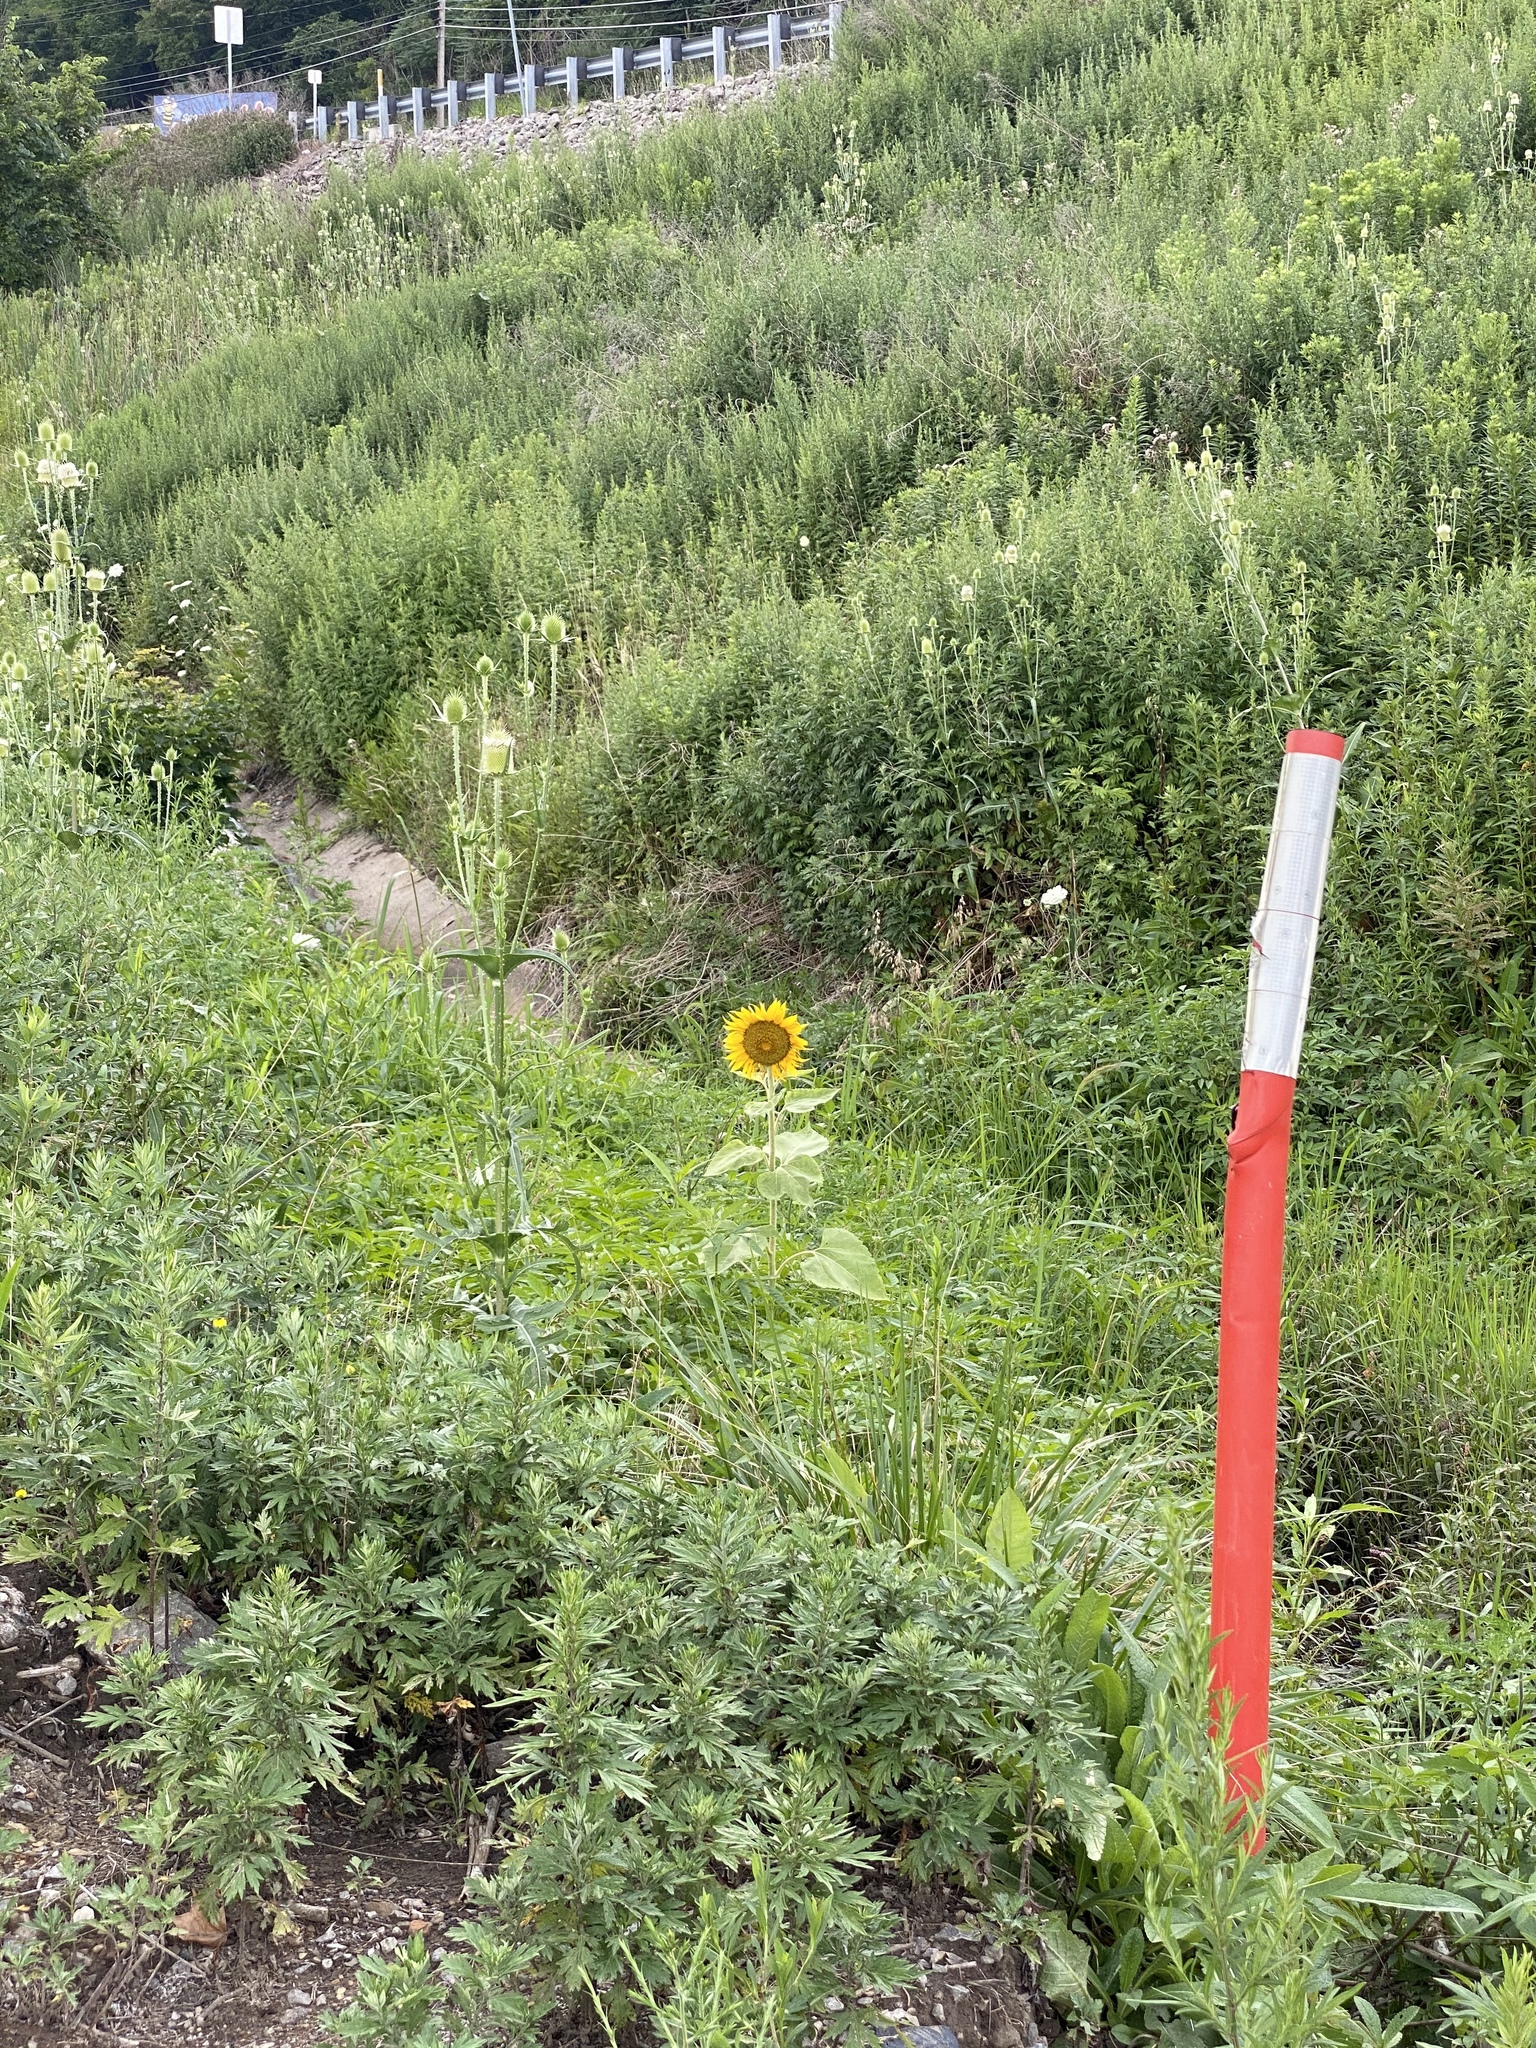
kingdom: Plantae
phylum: Tracheophyta
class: Magnoliopsida
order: Asterales
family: Asteraceae
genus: Helianthus
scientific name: Helianthus annuus
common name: Sunflower
